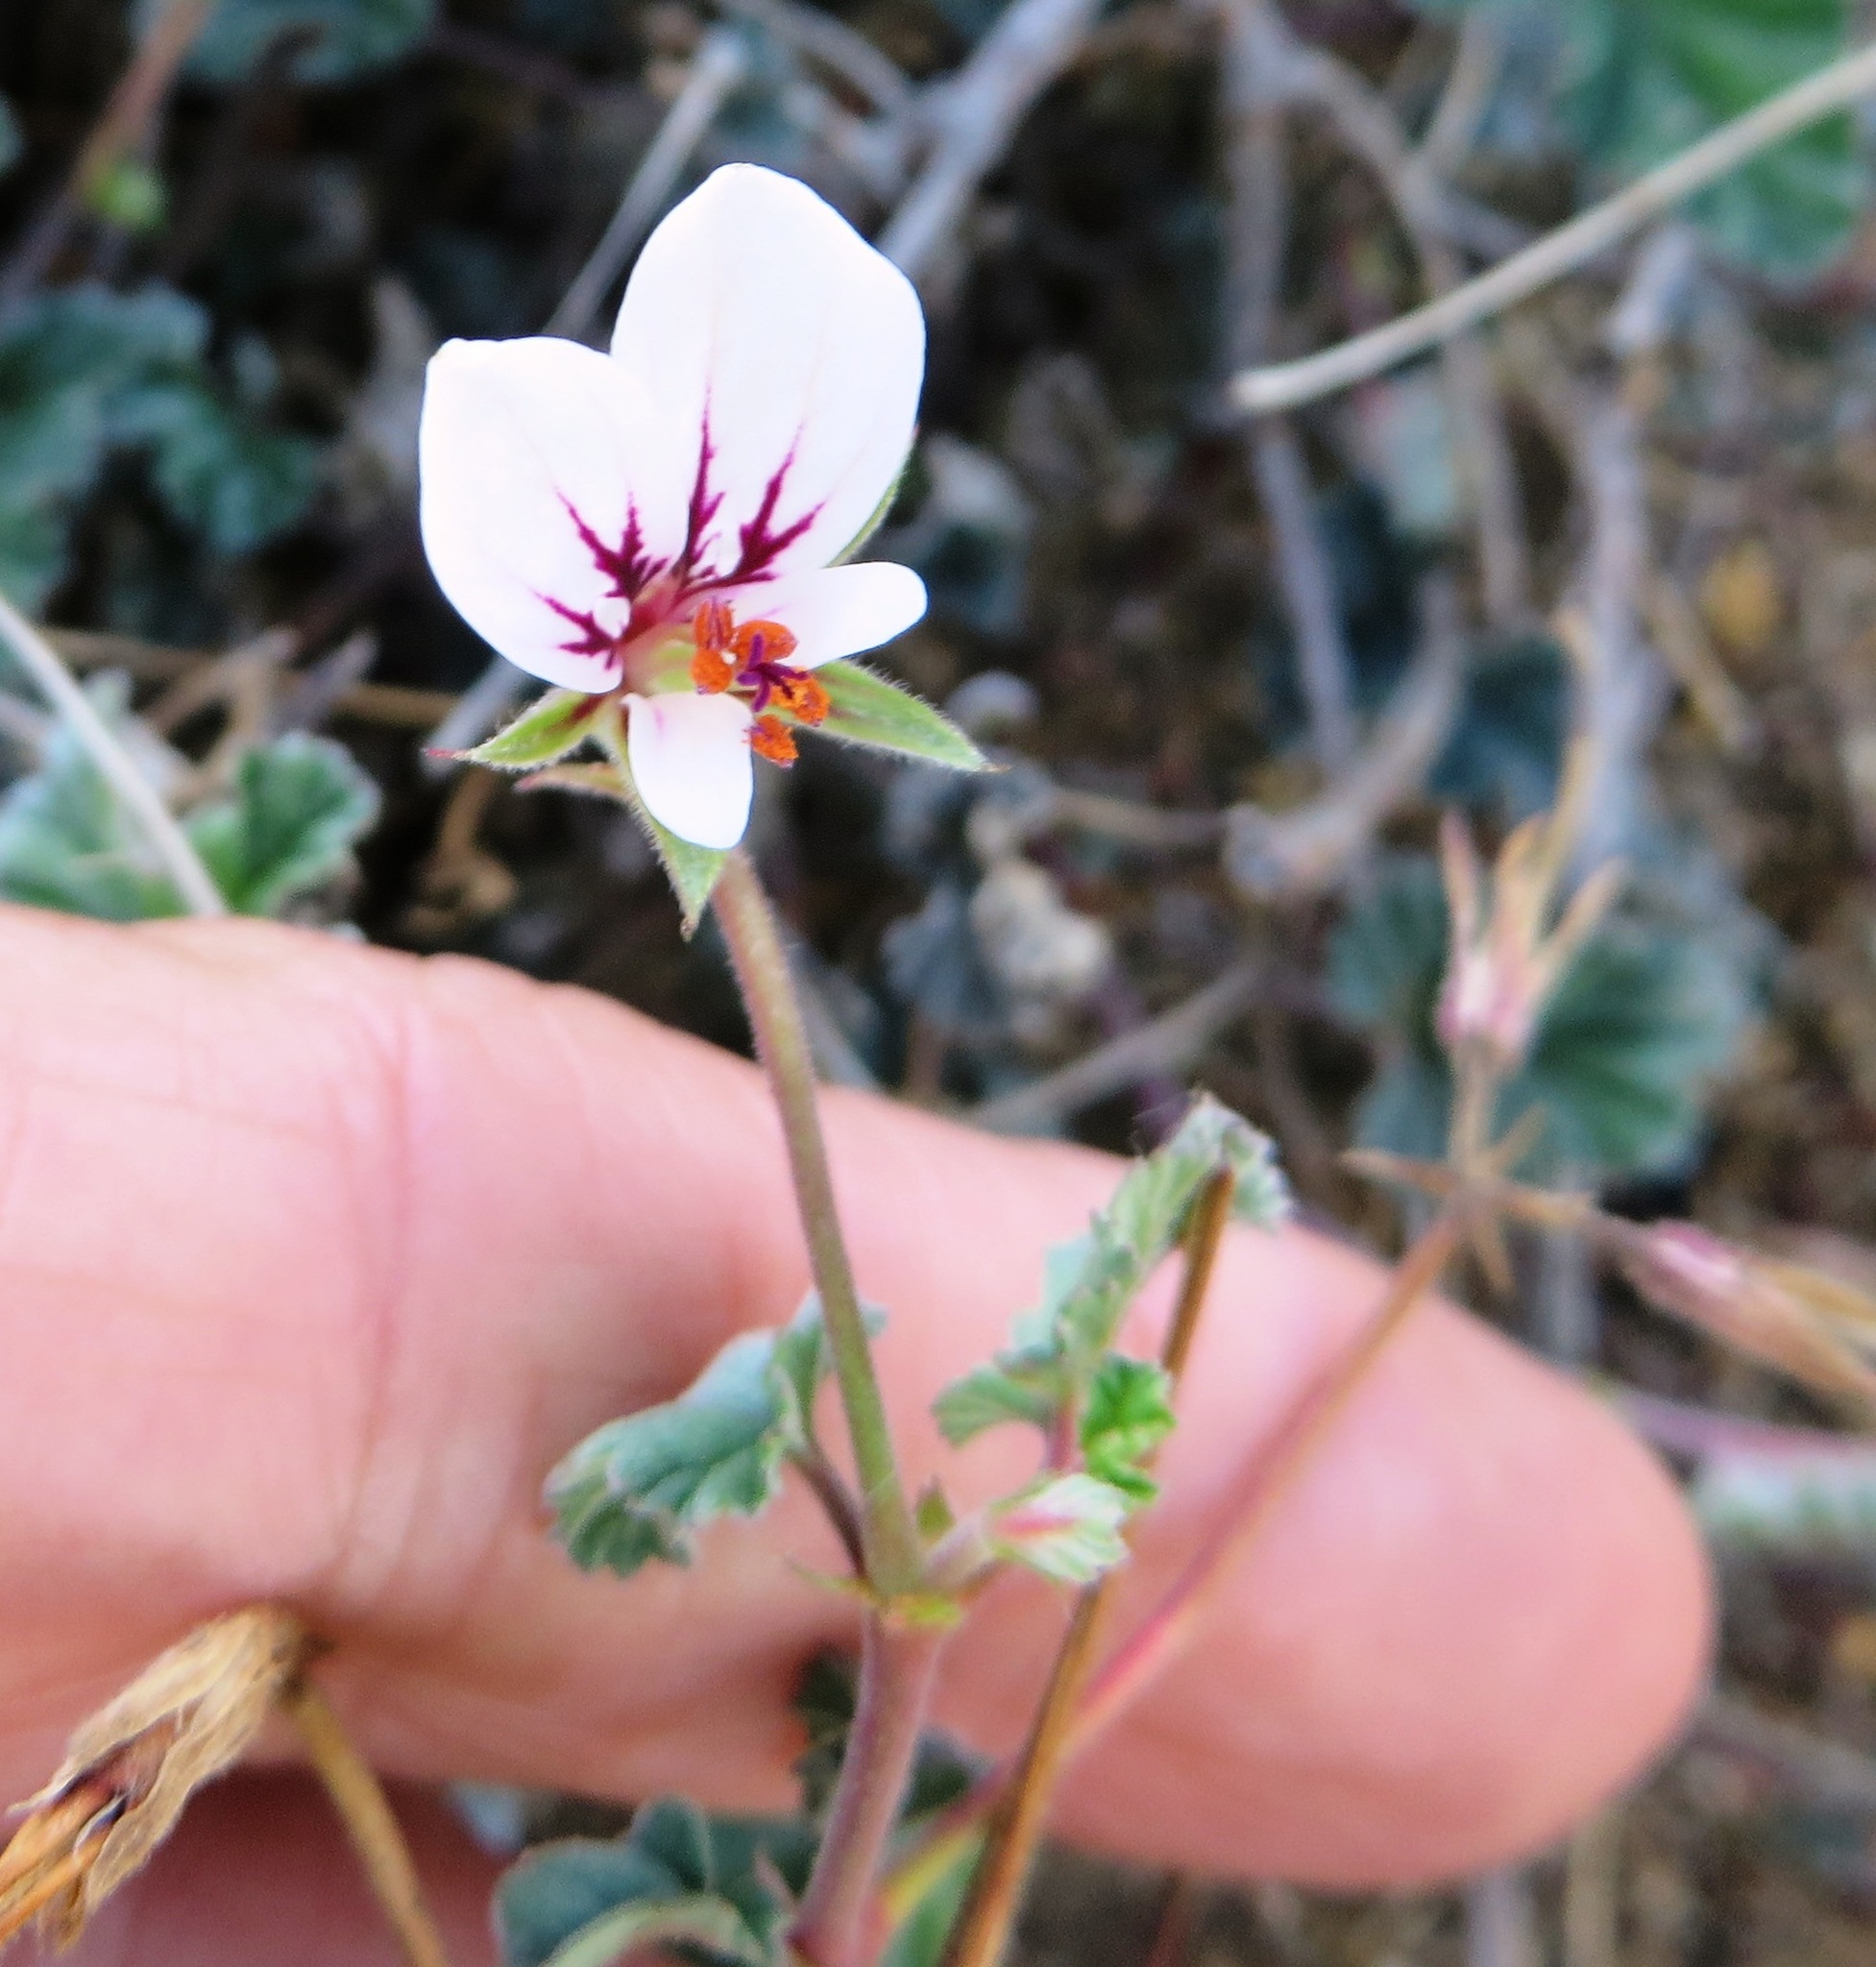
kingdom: Plantae
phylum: Tracheophyta
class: Magnoliopsida
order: Geraniales
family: Geraniaceae
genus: Pelargonium
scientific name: Pelargonium candicans
